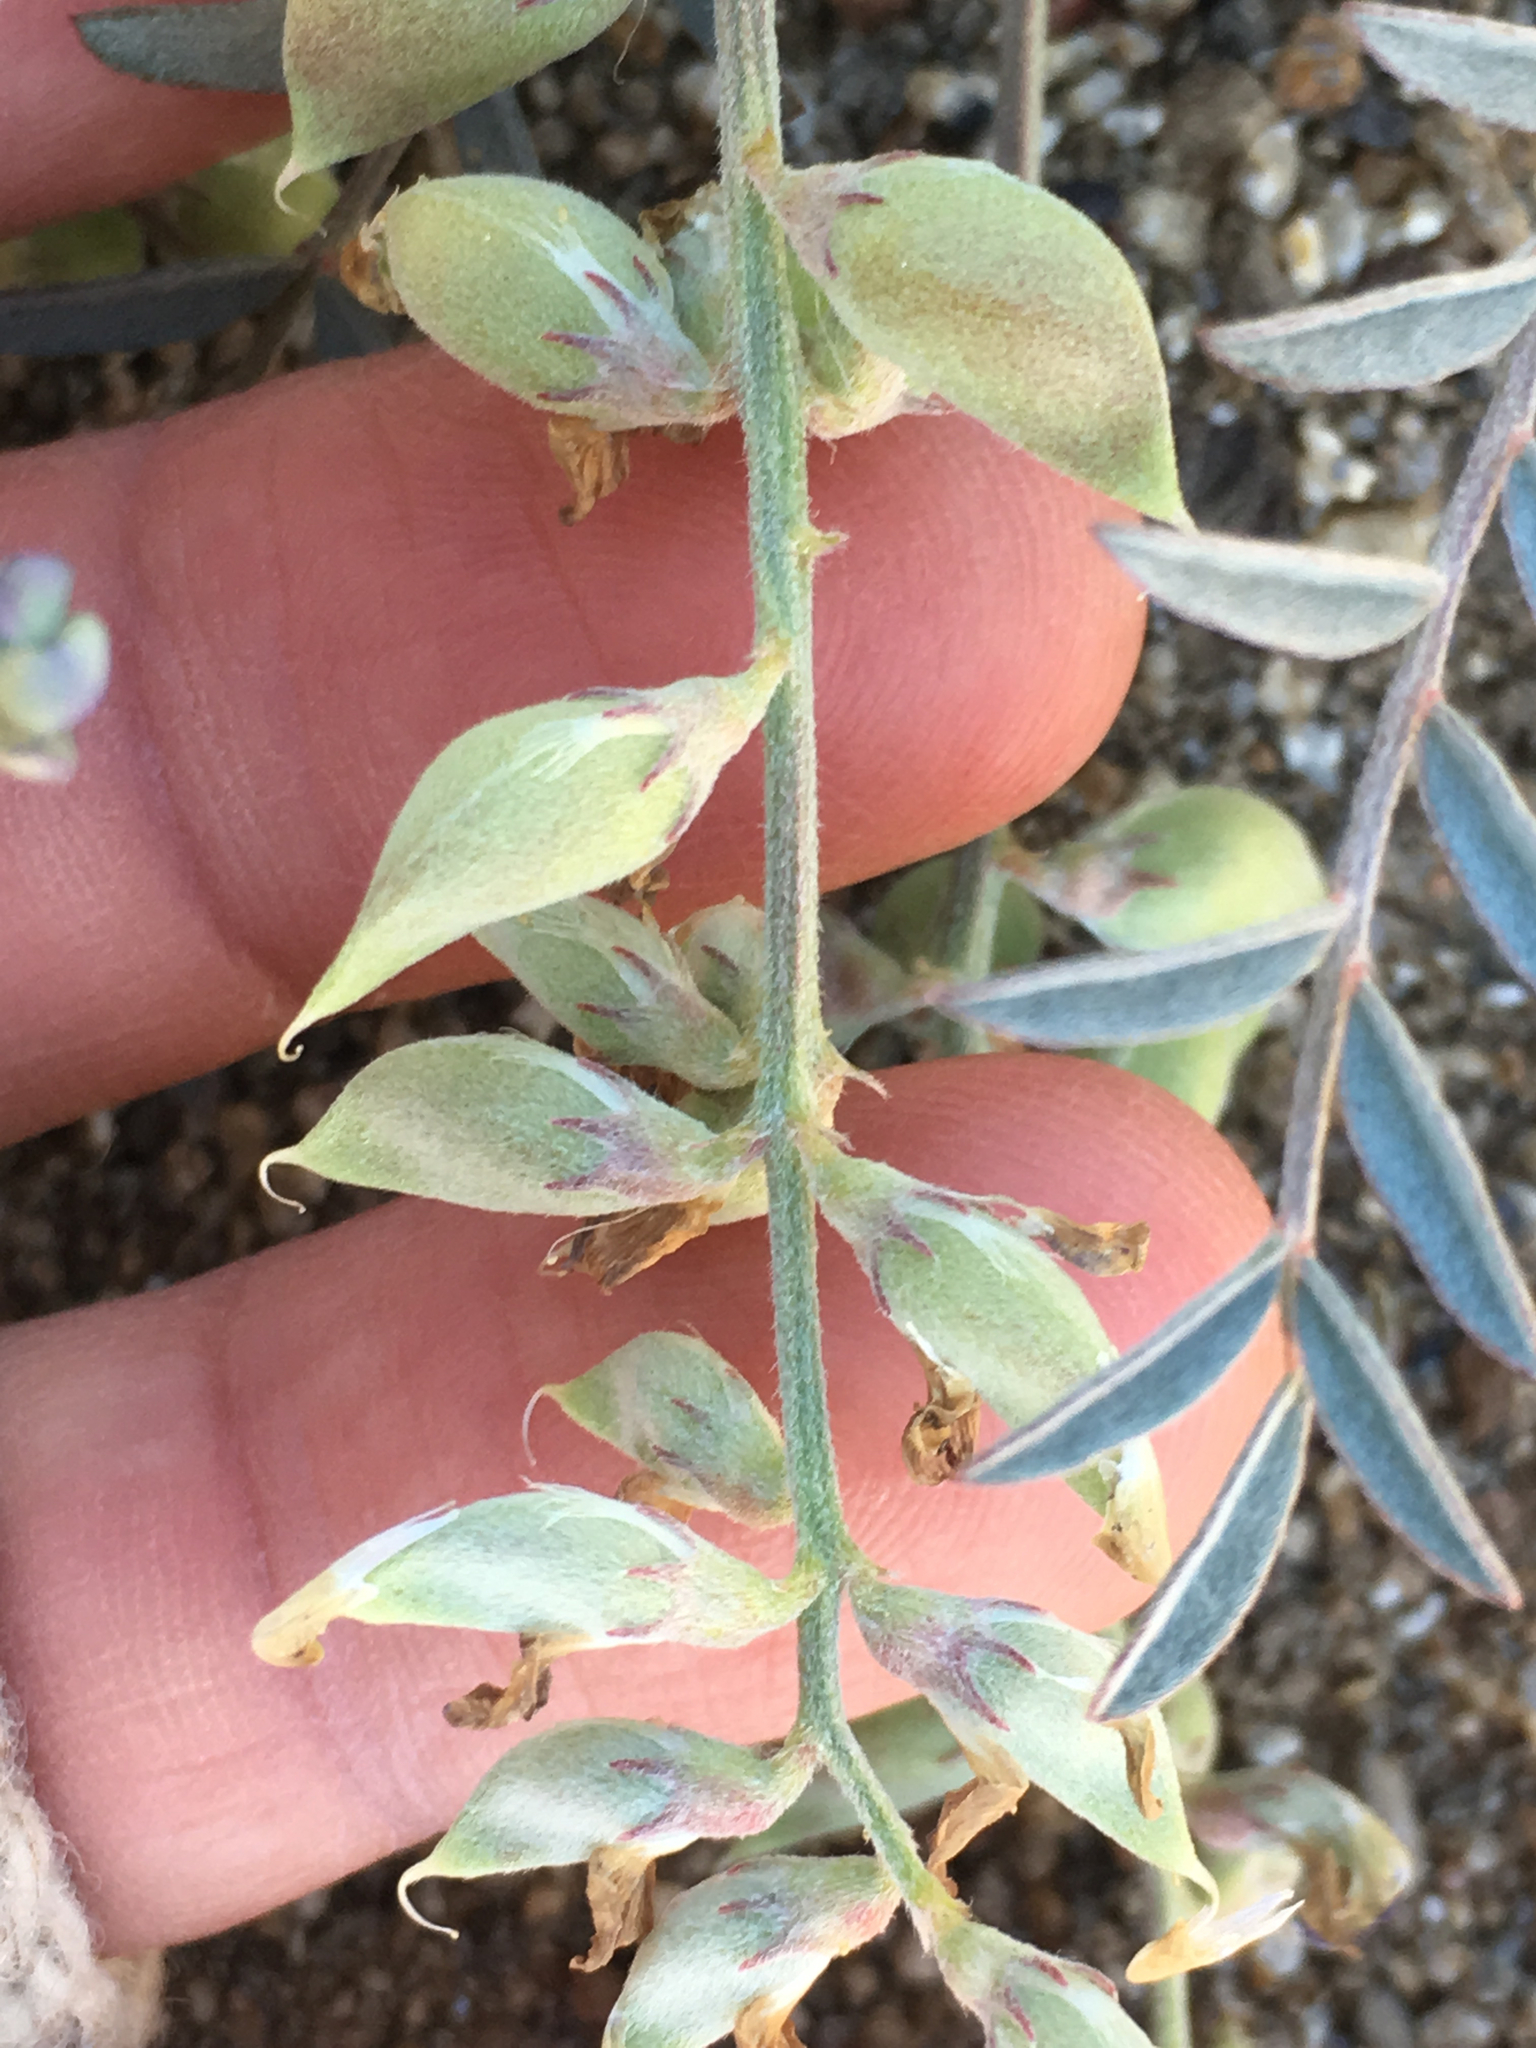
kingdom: Plantae
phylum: Tracheophyta
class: Magnoliopsida
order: Fabales
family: Fabaceae
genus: Astragalus
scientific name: Astragalus palmeri
